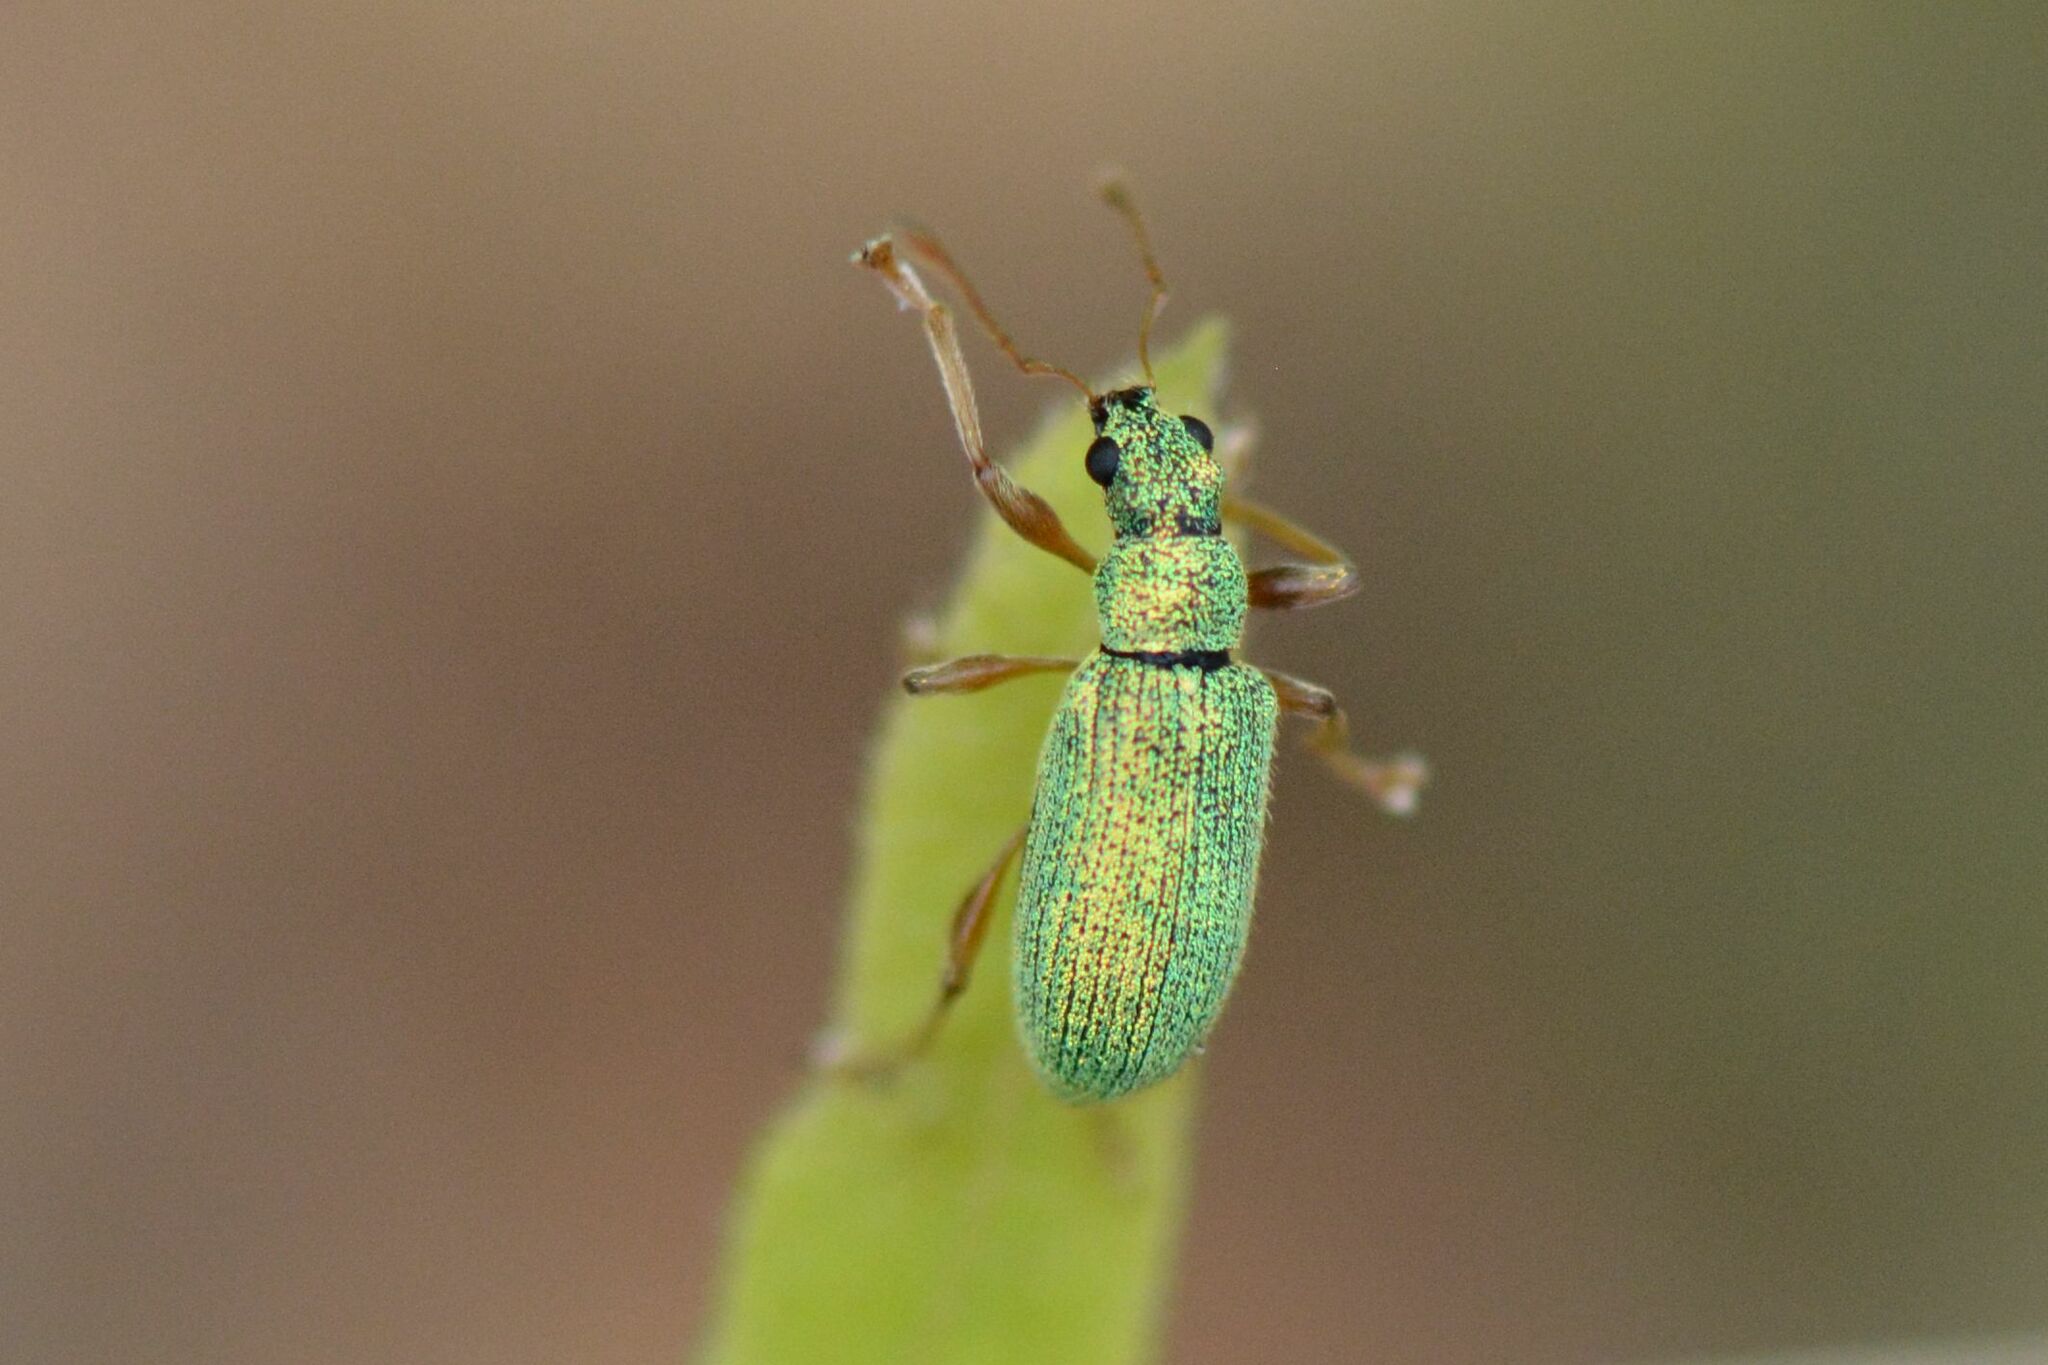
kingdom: Animalia
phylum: Arthropoda
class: Insecta
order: Coleoptera
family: Curculionidae
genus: Polydrusus
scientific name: Polydrusus pterygomalis
